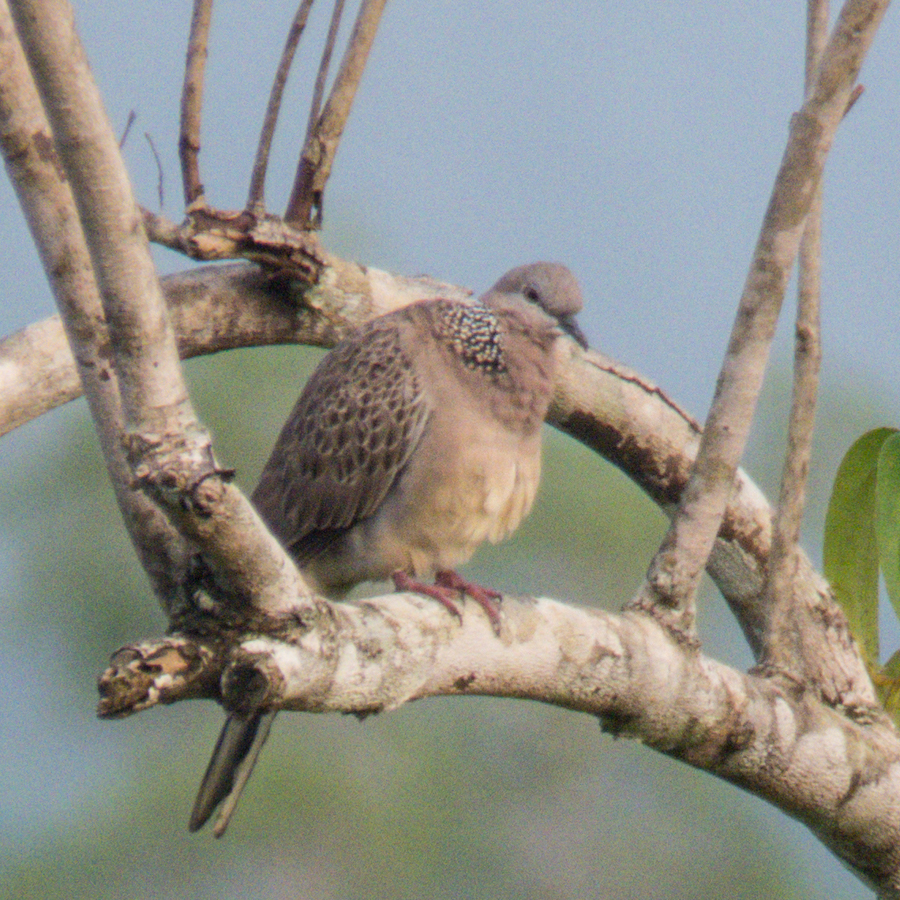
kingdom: Animalia
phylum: Chordata
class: Aves
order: Columbiformes
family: Columbidae
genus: Spilopelia
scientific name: Spilopelia chinensis
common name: Spotted dove
